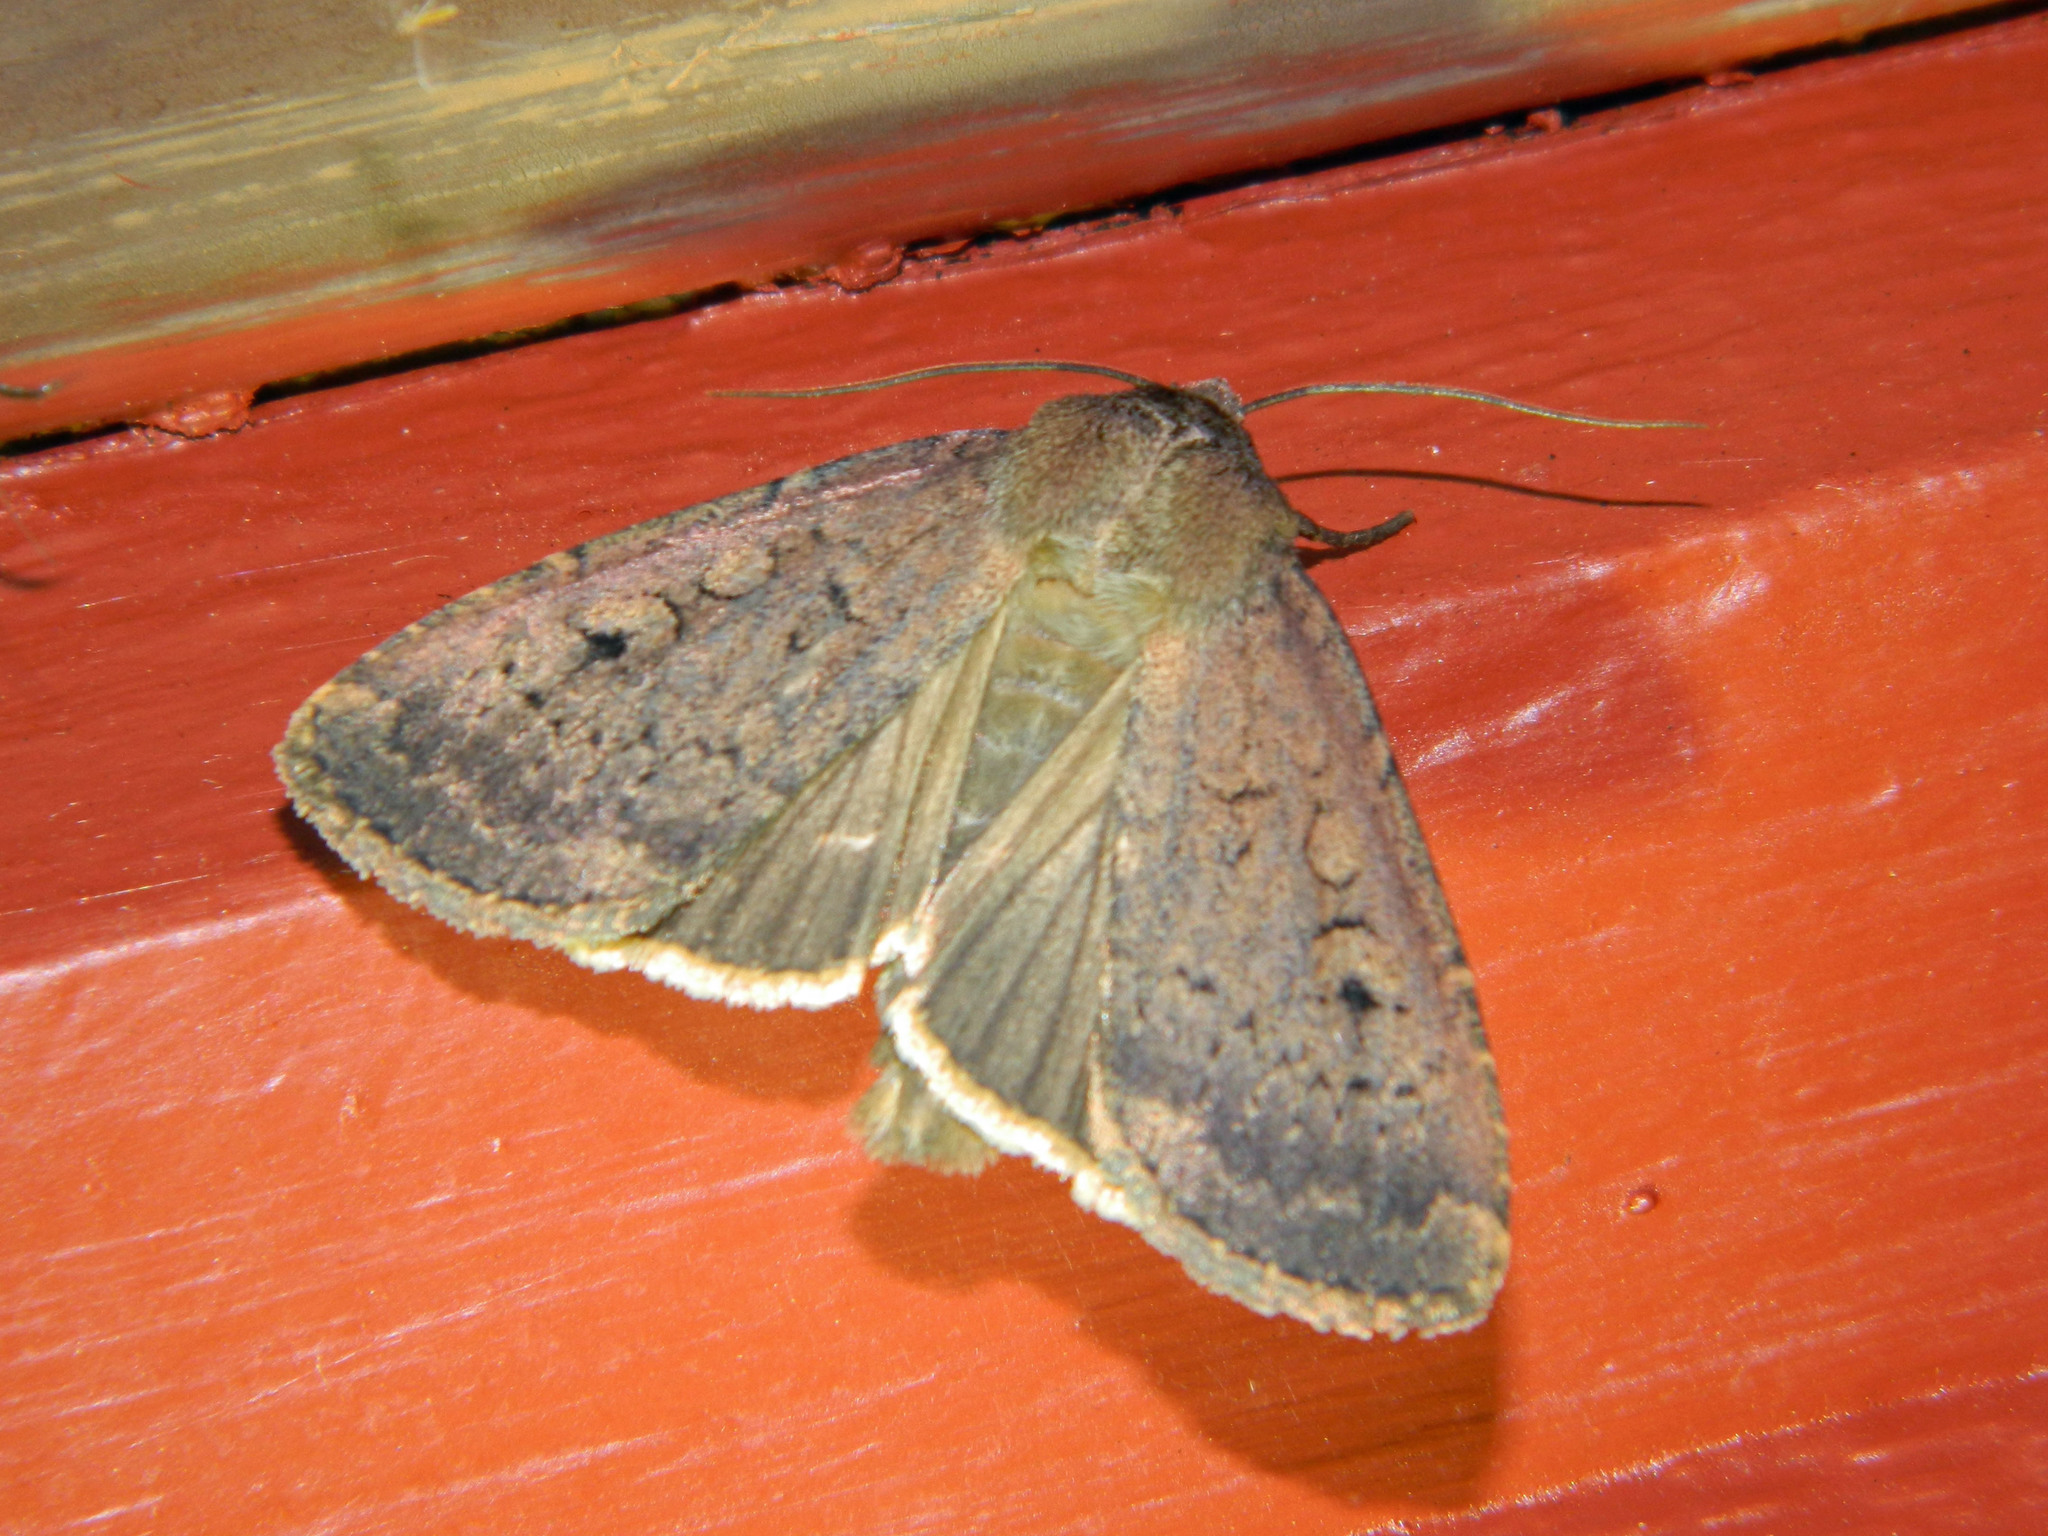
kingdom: Animalia
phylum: Arthropoda
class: Insecta
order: Lepidoptera
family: Noctuidae
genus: Graphiphora
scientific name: Graphiphora augur
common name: Double dart
